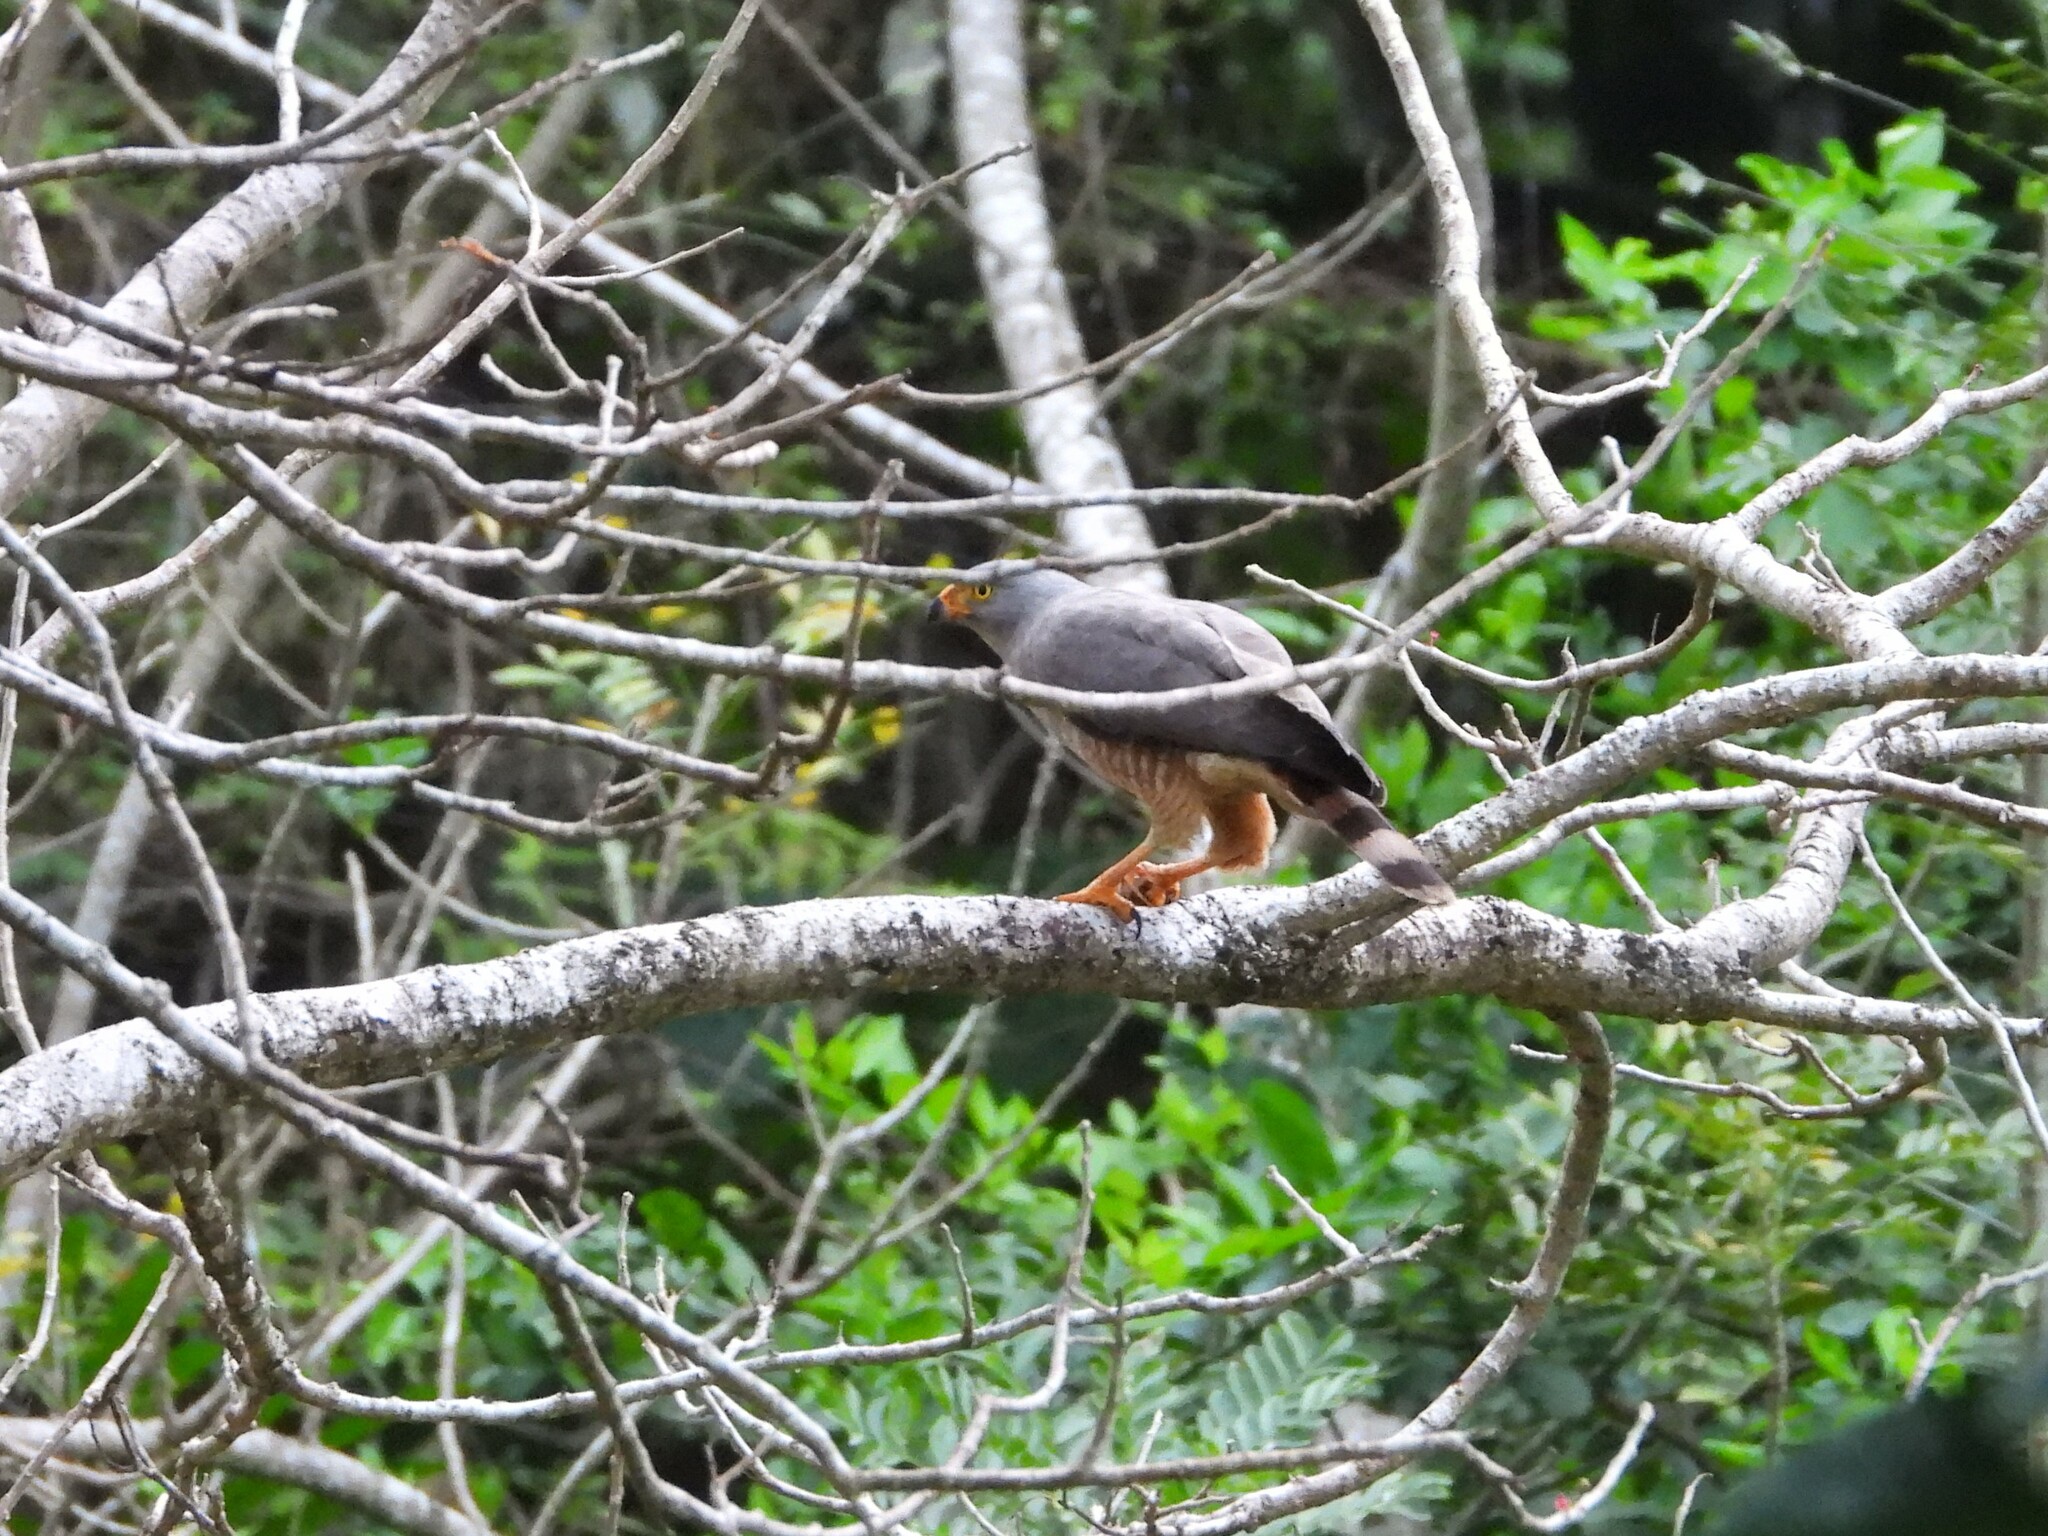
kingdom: Animalia
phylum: Chordata
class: Aves
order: Accipitriformes
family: Accipitridae
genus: Rupornis
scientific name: Rupornis magnirostris
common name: Roadside hawk
